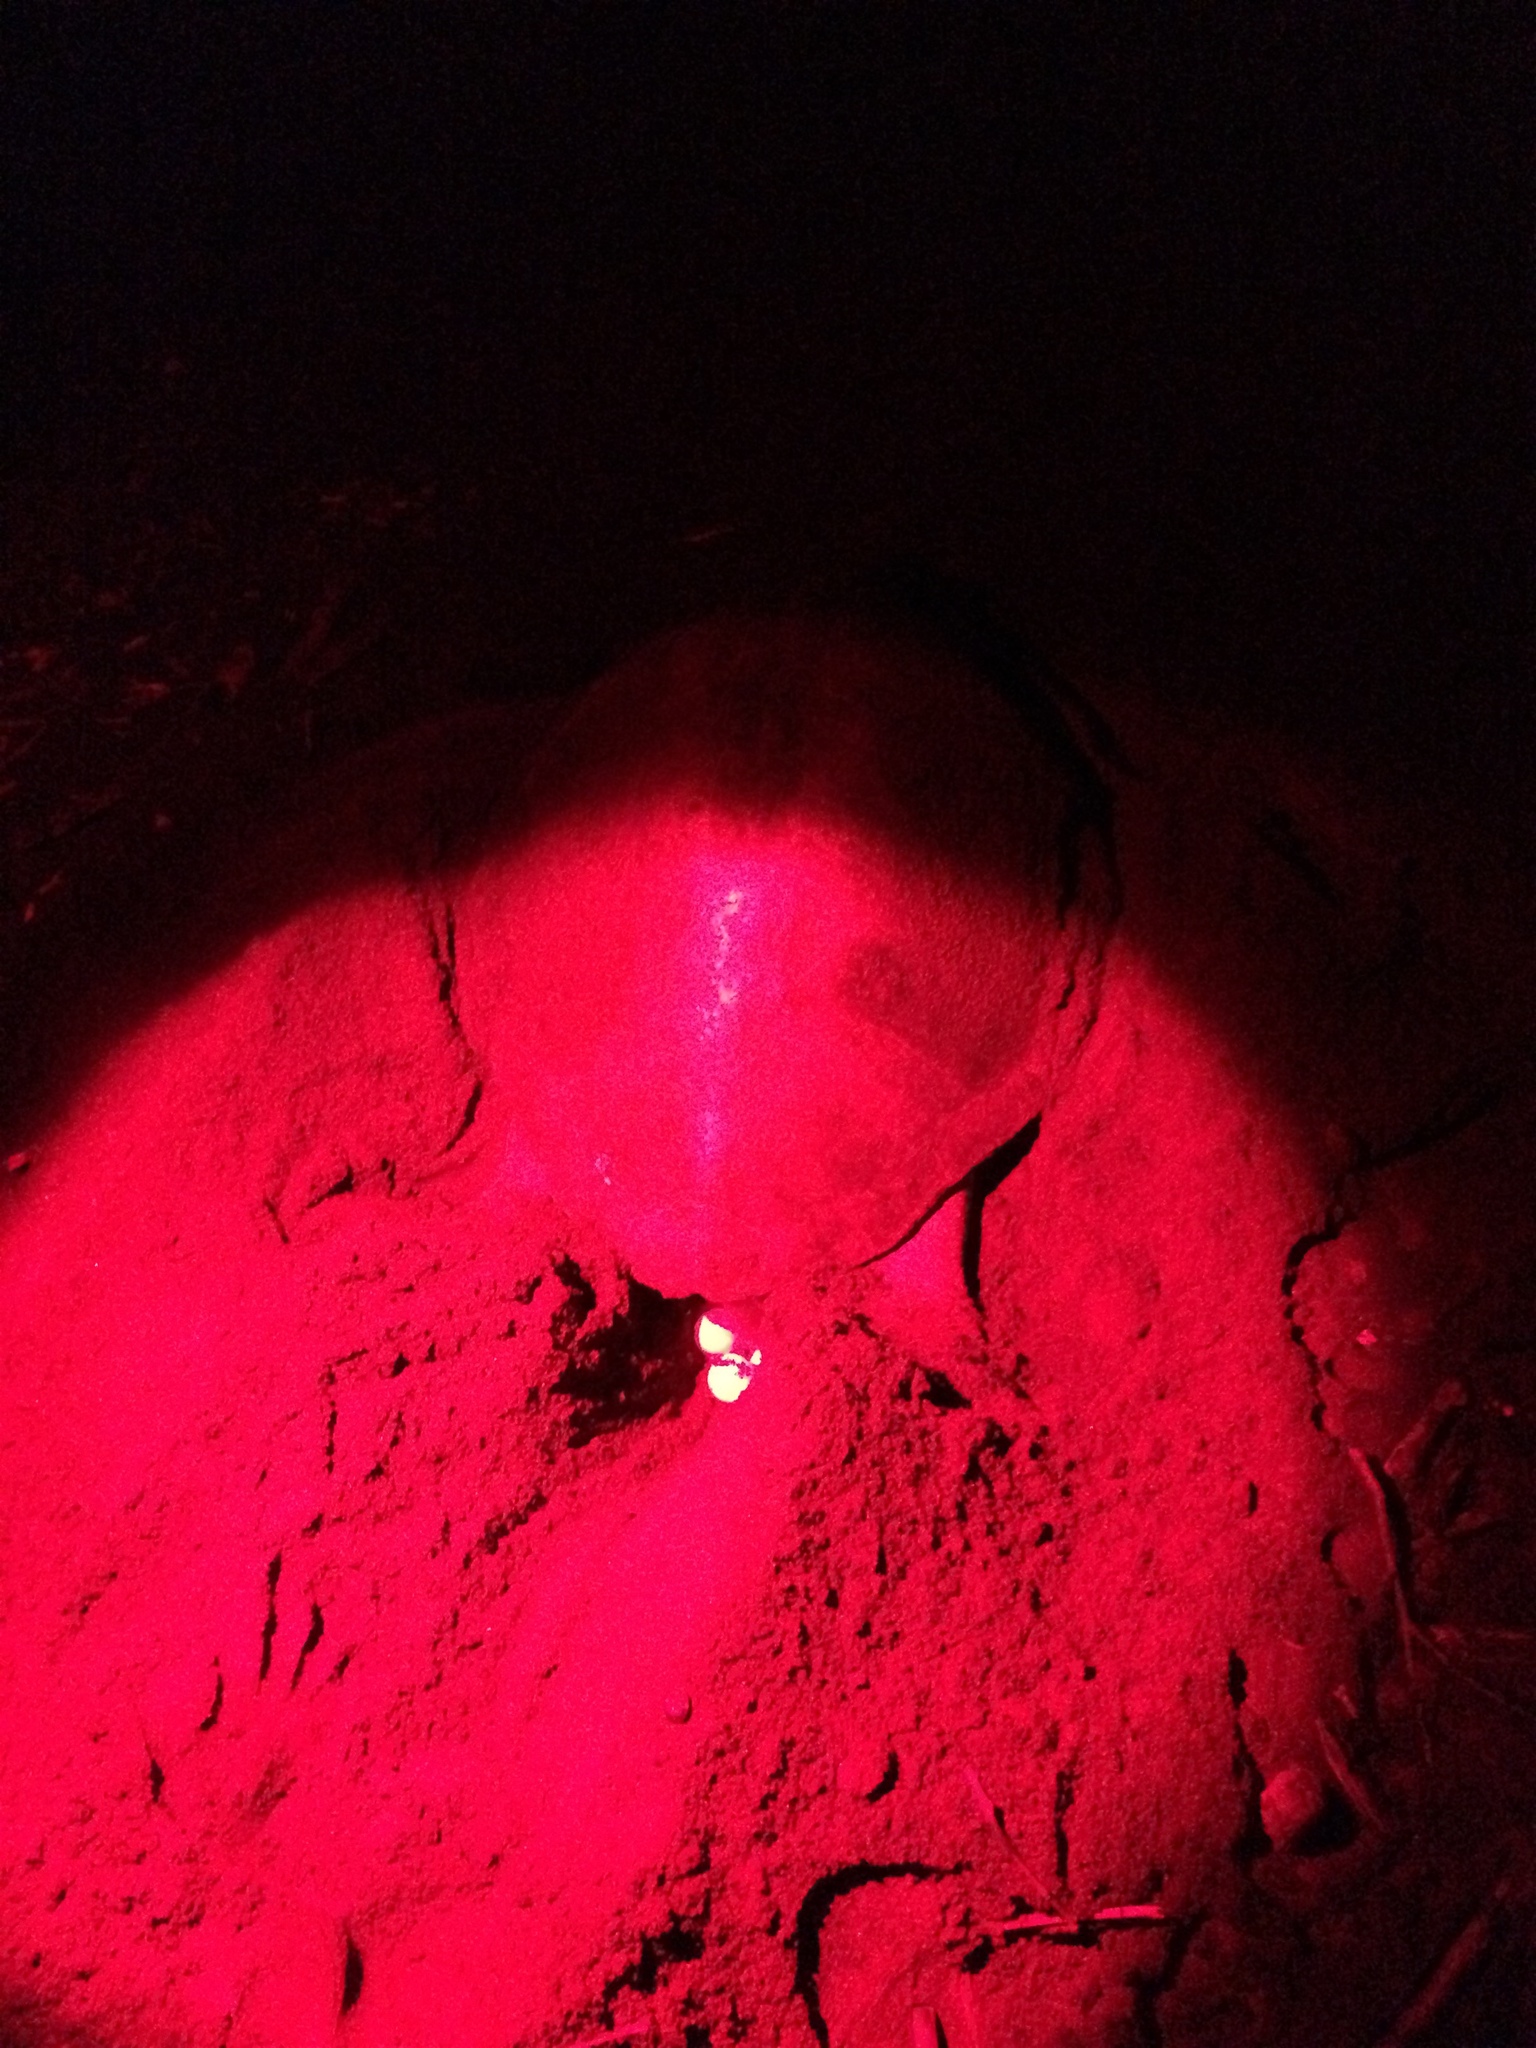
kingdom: Animalia
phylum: Chordata
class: Testudines
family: Cheloniidae
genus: Lepidochelys
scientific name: Lepidochelys olivacea
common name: Olive ridley
